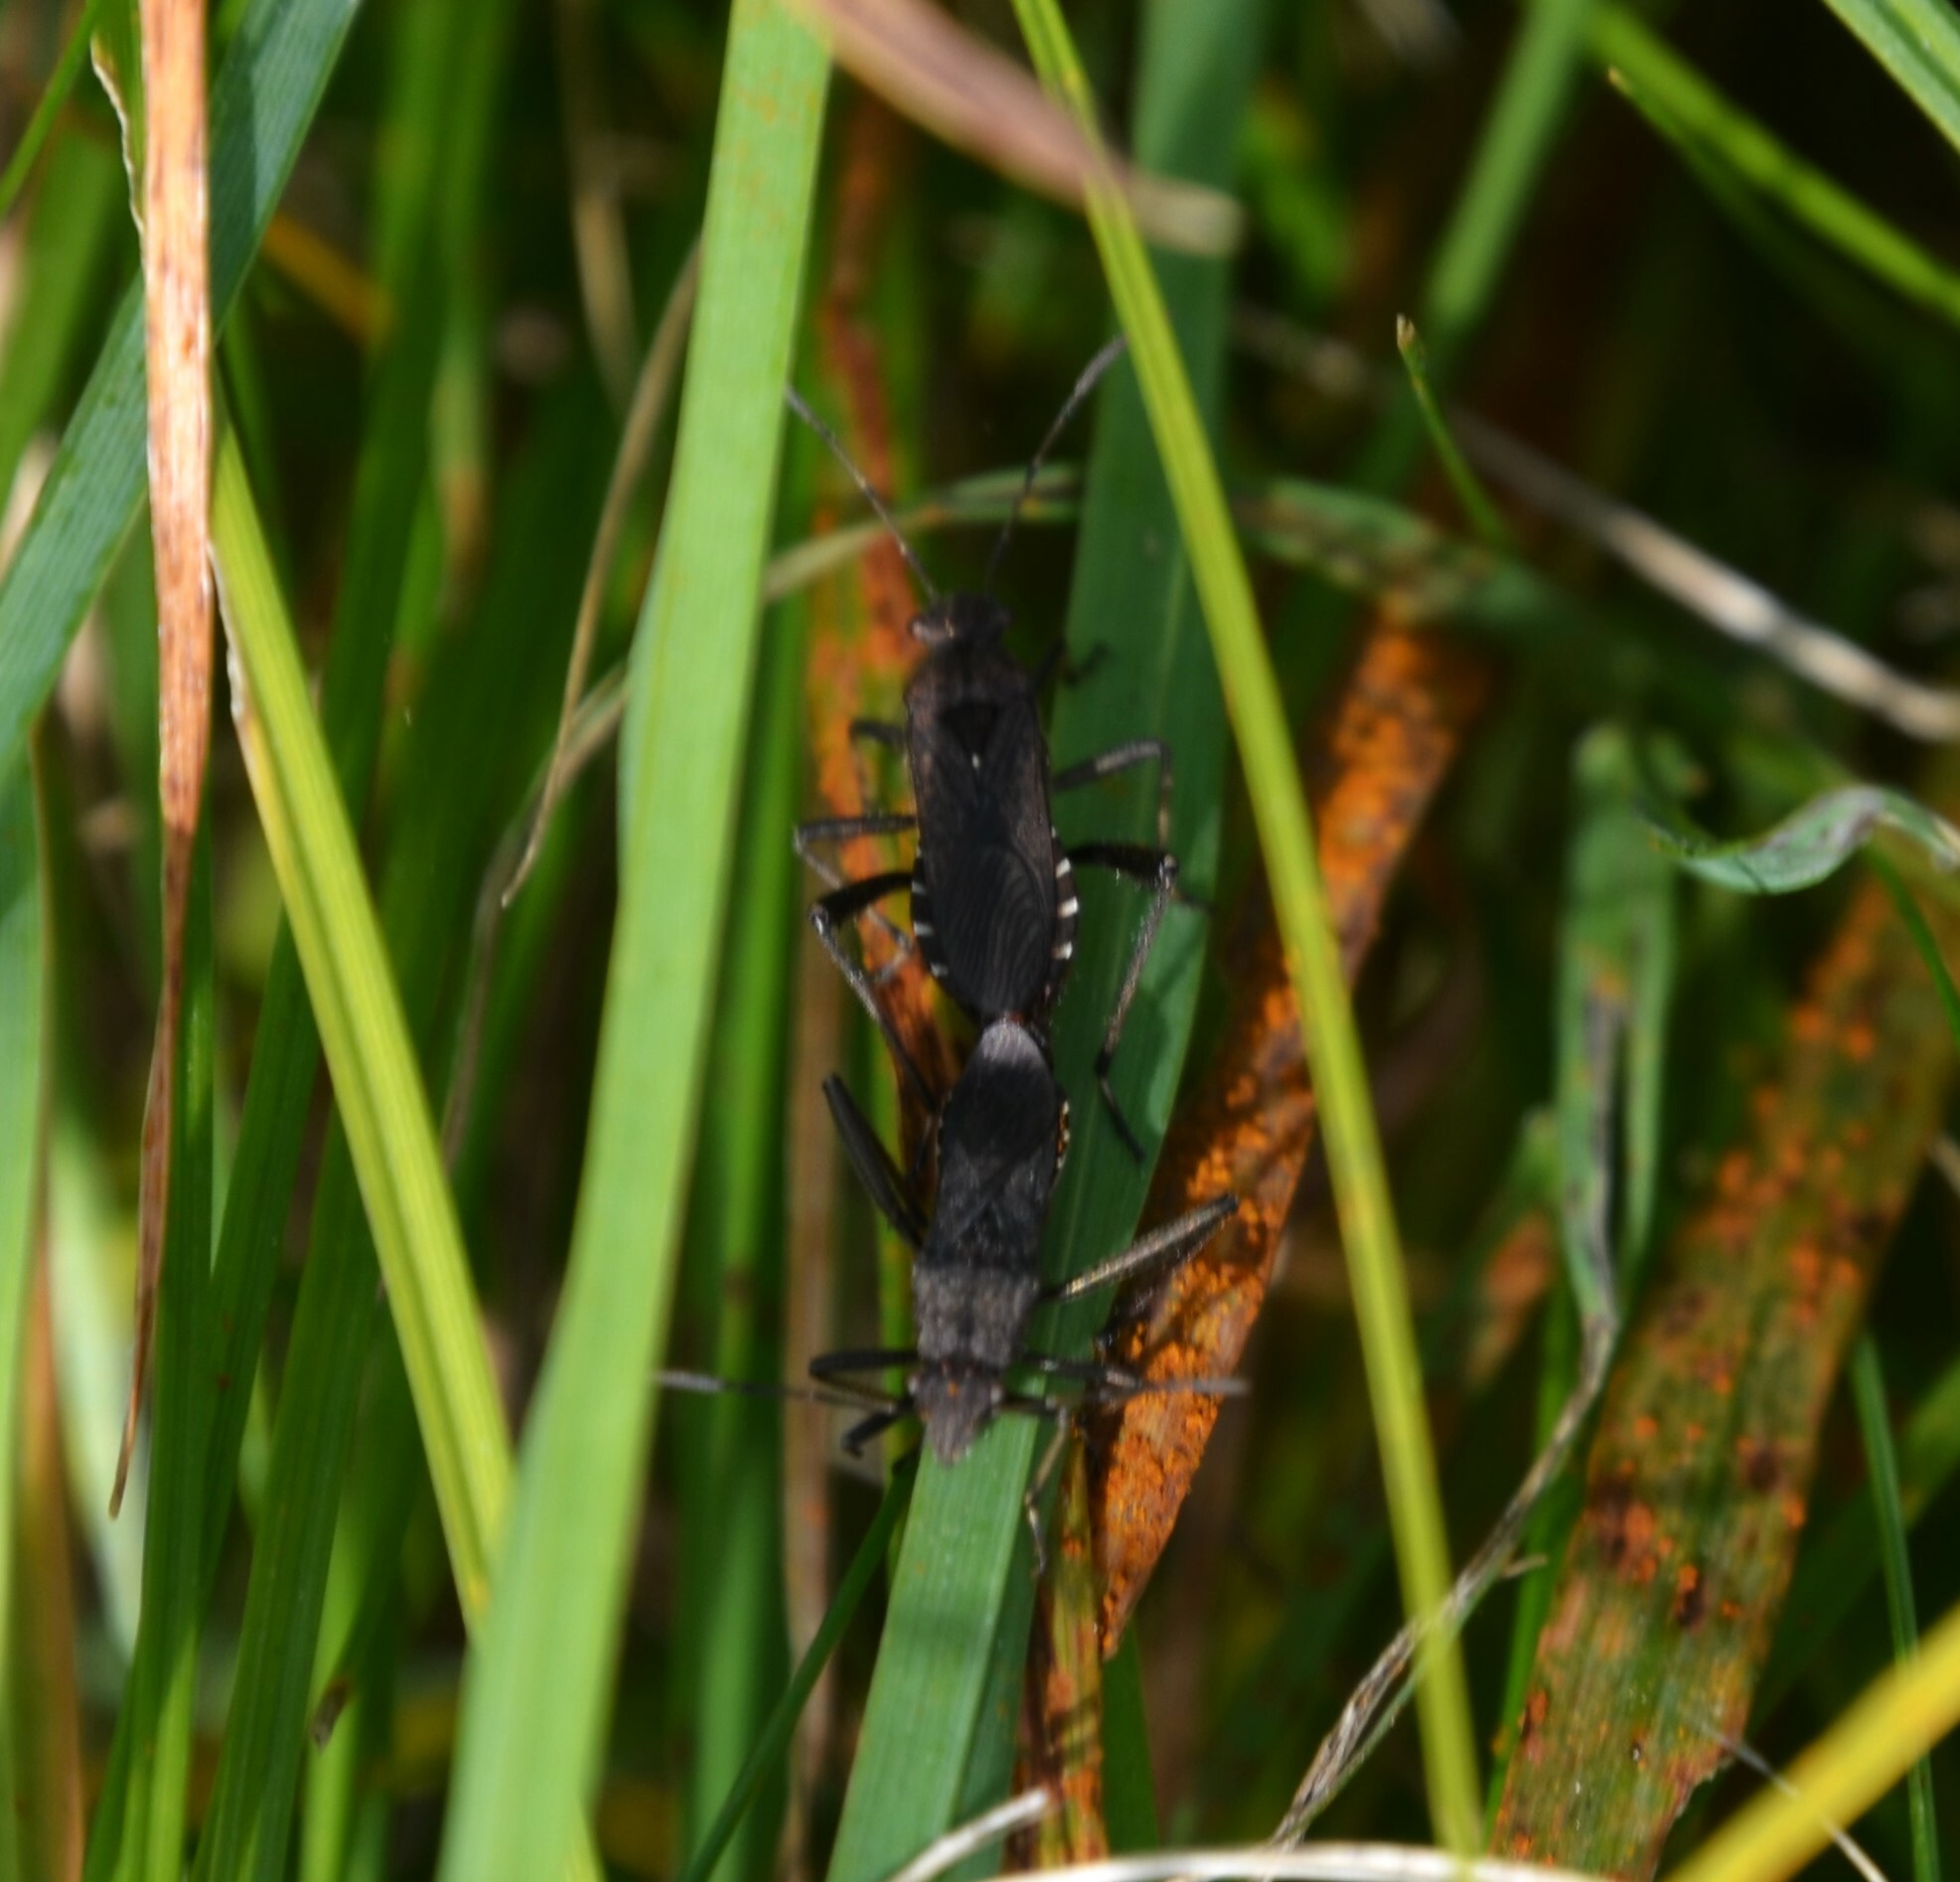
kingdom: Animalia
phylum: Arthropoda
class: Insecta
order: Hemiptera
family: Alydidae
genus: Alydus
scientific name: Alydus calcaratus
